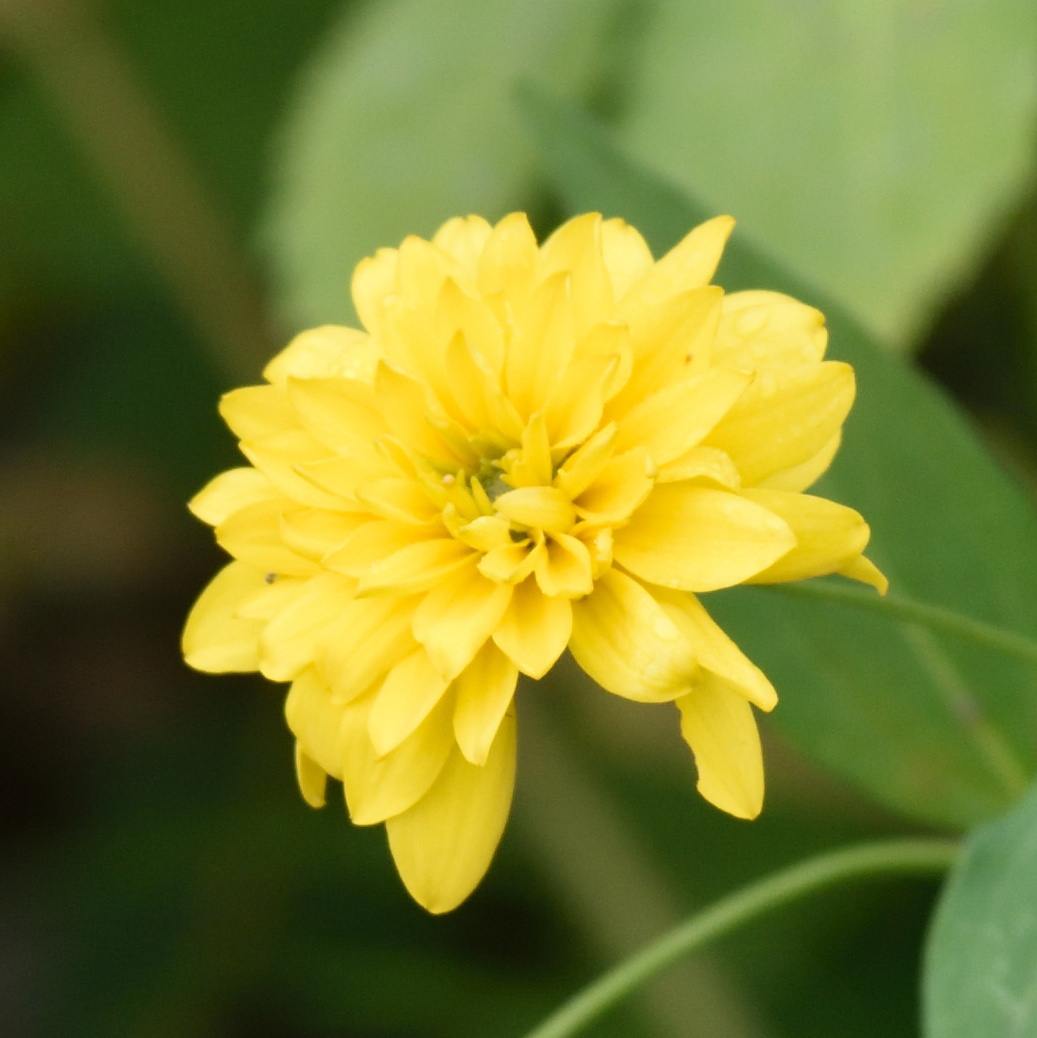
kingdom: Plantae
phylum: Tracheophyta
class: Magnoliopsida
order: Asterales
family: Asteraceae
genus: Rudbeckia
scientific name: Rudbeckia laciniata
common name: Coneflower
